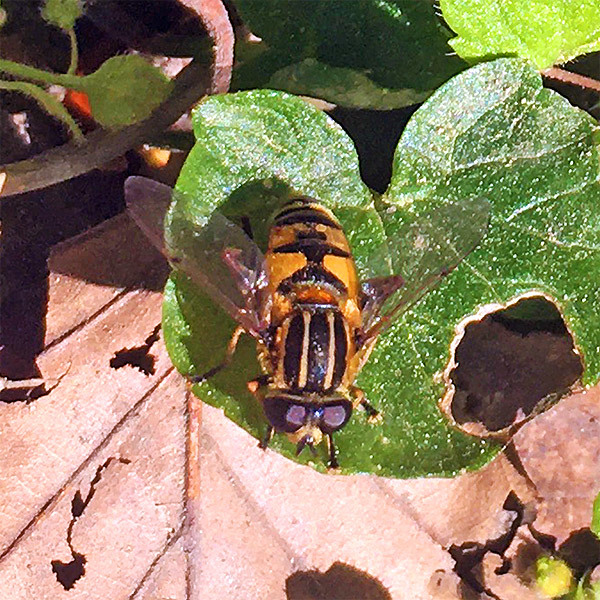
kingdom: Animalia
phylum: Arthropoda
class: Insecta
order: Diptera
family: Syrphidae
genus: Helophilus
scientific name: Helophilus pendulus
